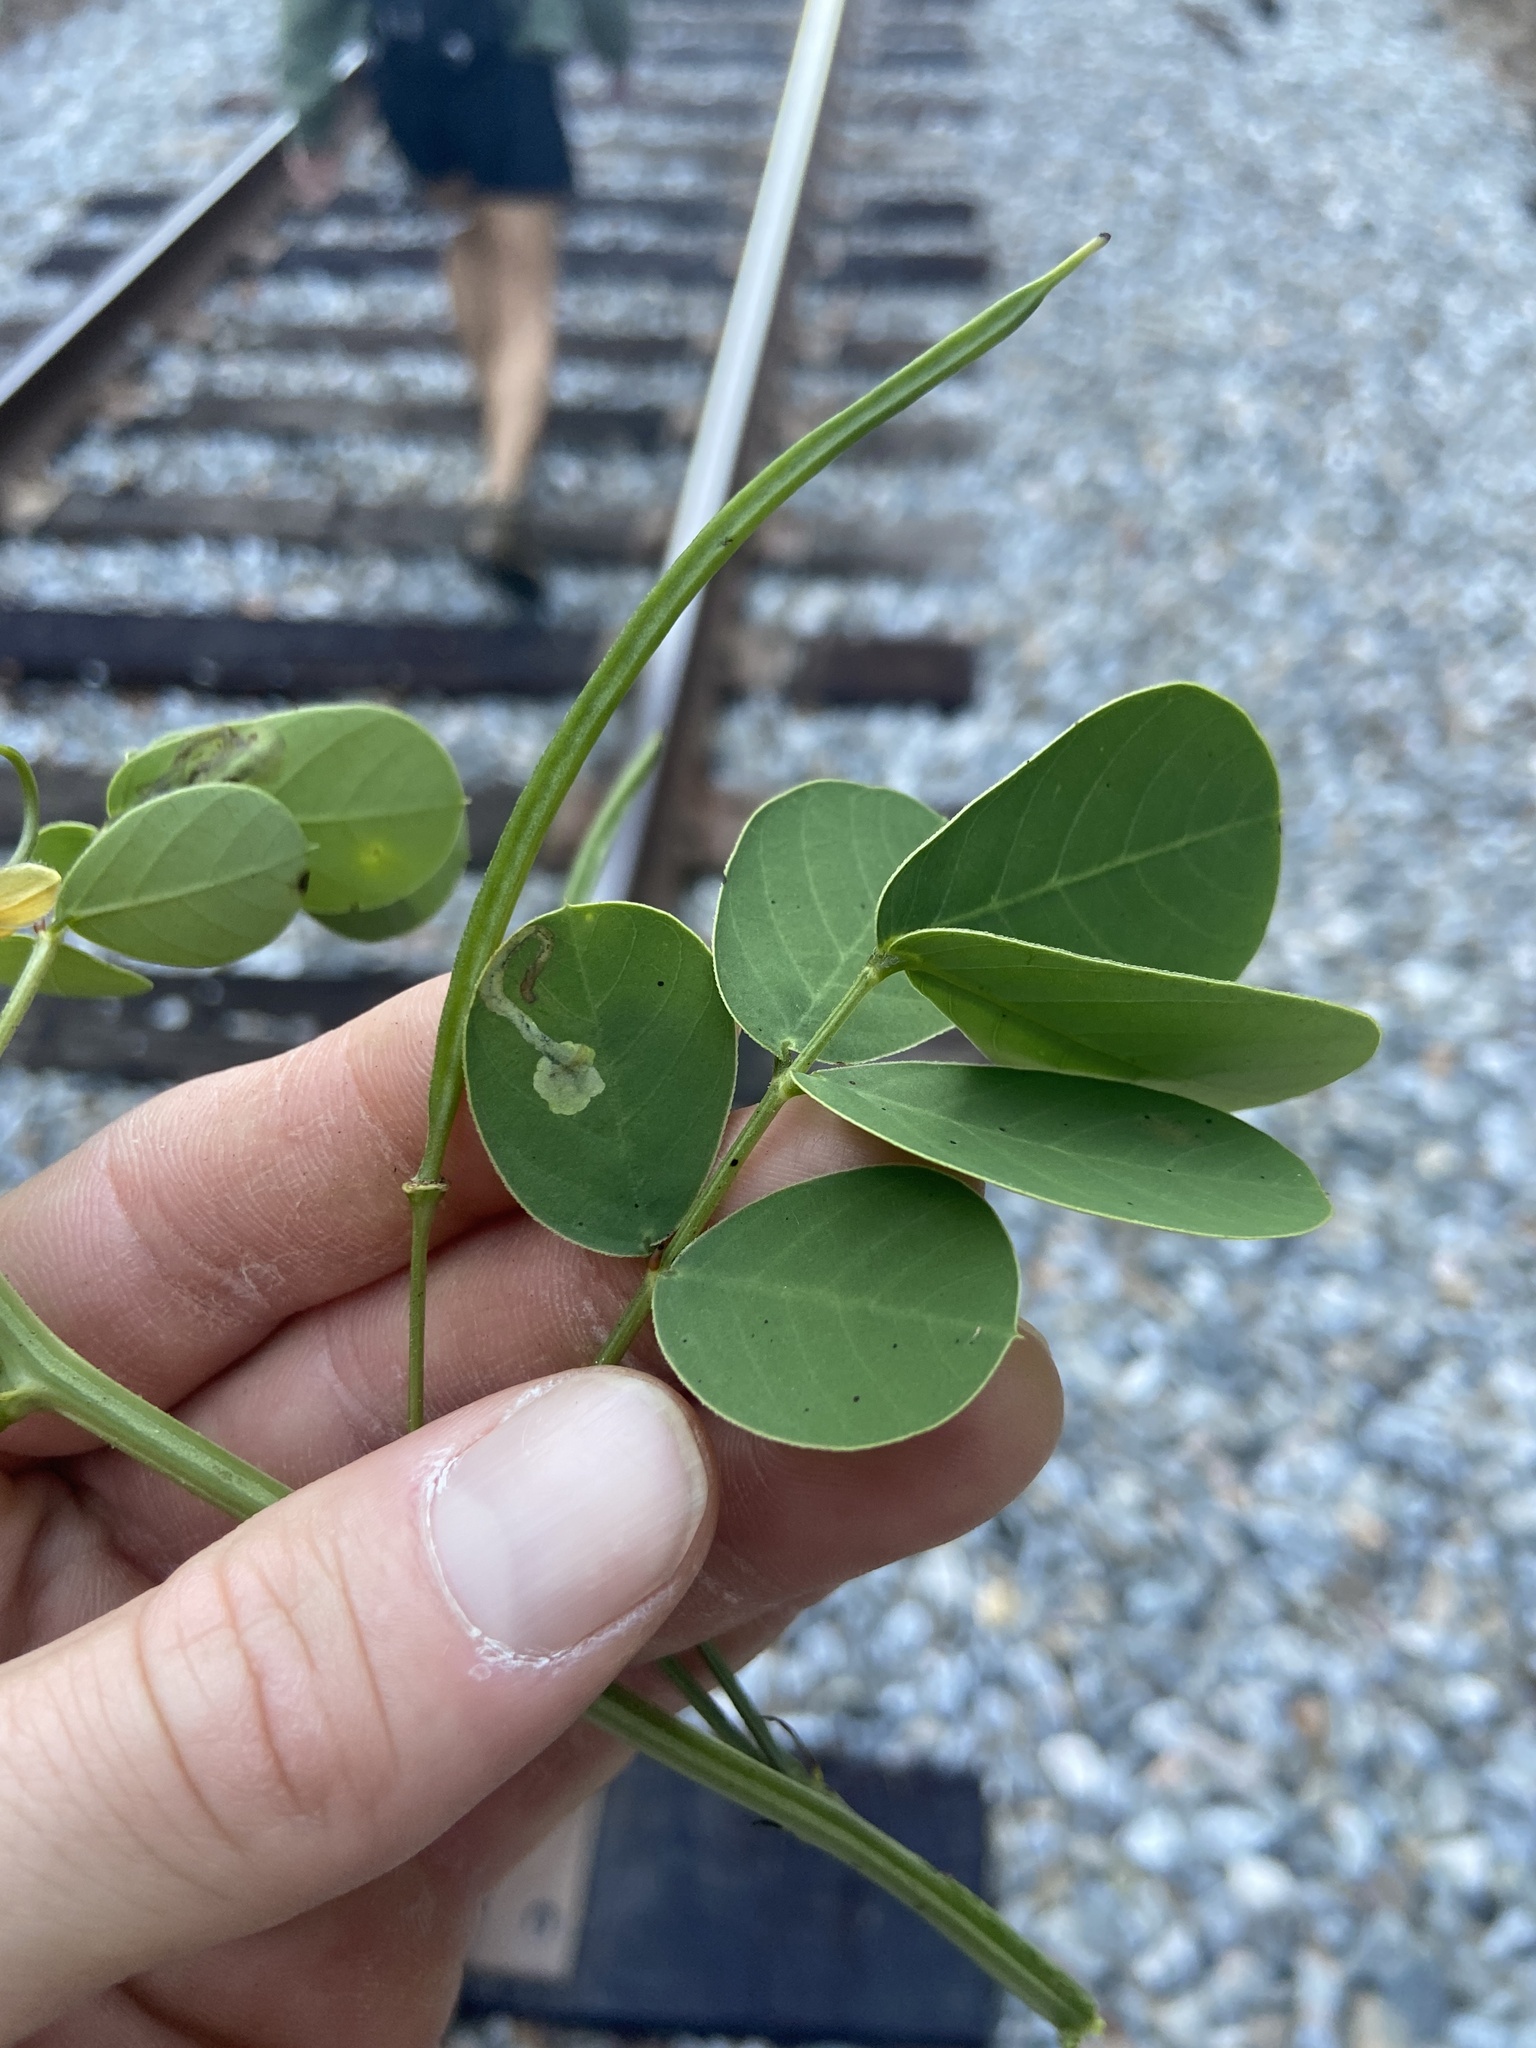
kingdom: Plantae
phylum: Tracheophyta
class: Magnoliopsida
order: Fabales
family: Fabaceae
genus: Senna
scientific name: Senna obtusifolia
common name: Java-bean
